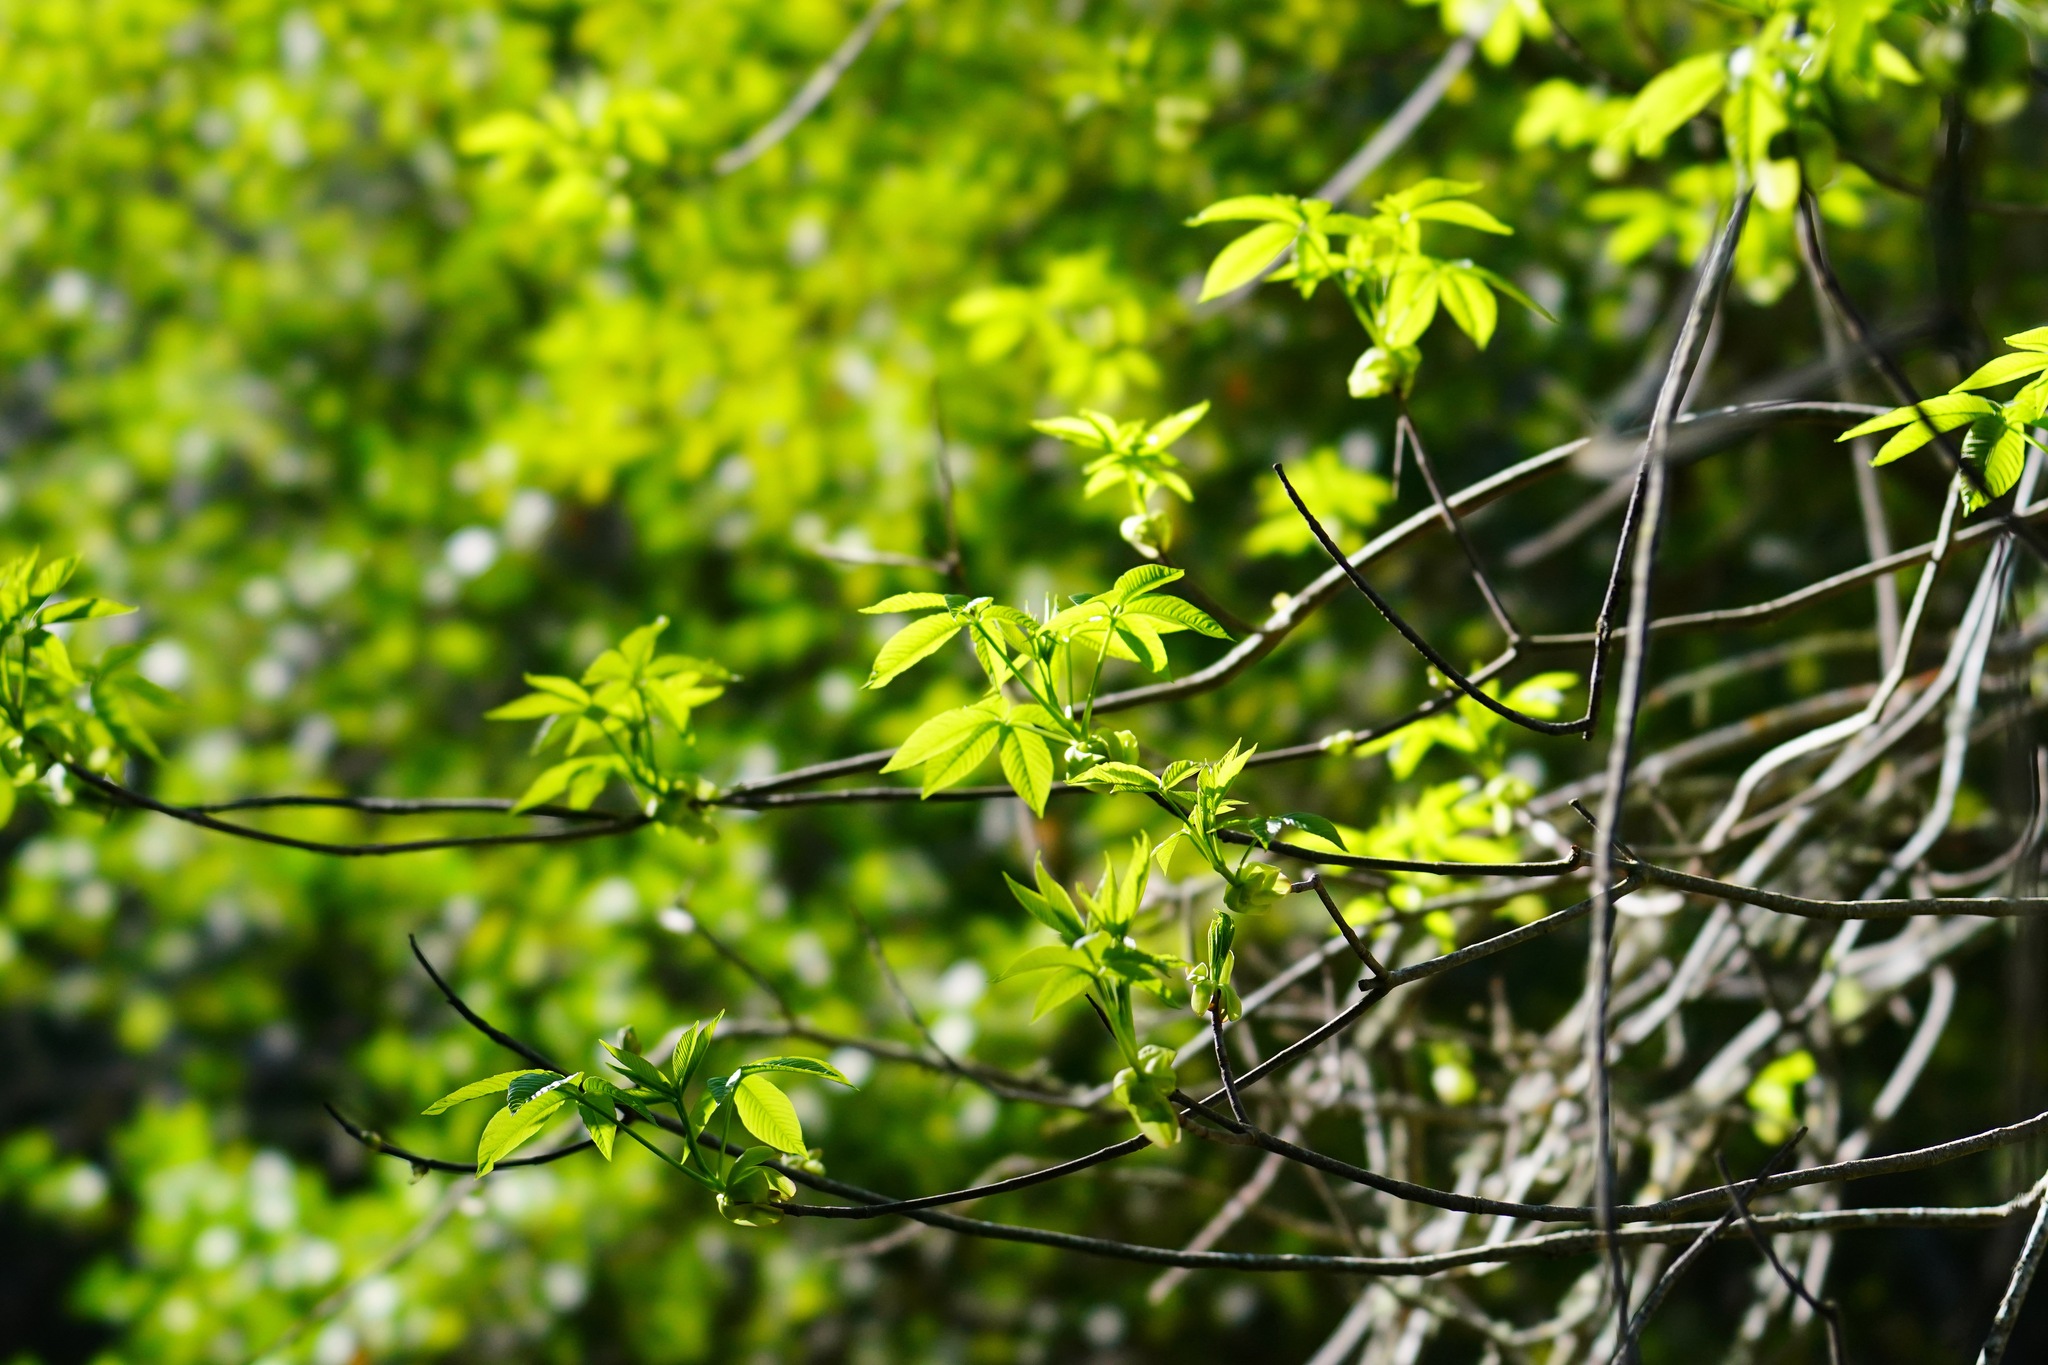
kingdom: Plantae
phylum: Tracheophyta
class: Magnoliopsida
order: Sapindales
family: Sapindaceae
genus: Aesculus
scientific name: Aesculus californica
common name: California buckeye
